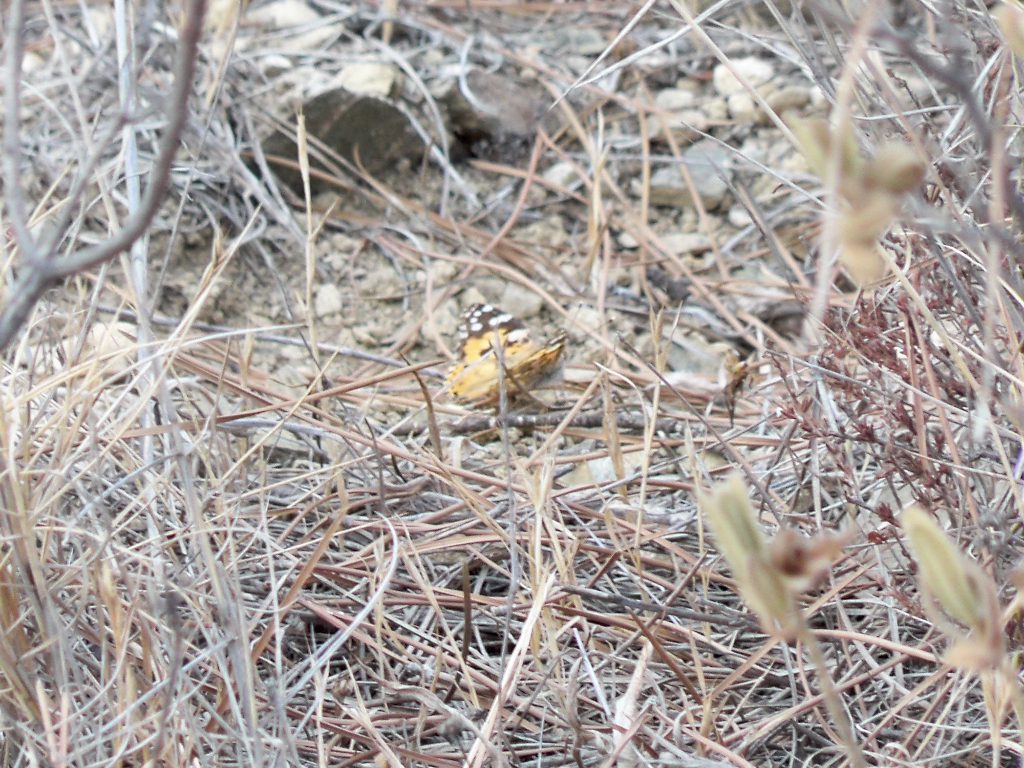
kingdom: Animalia
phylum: Arthropoda
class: Insecta
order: Lepidoptera
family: Nymphalidae
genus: Vanessa
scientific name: Vanessa cardui
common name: Painted lady
